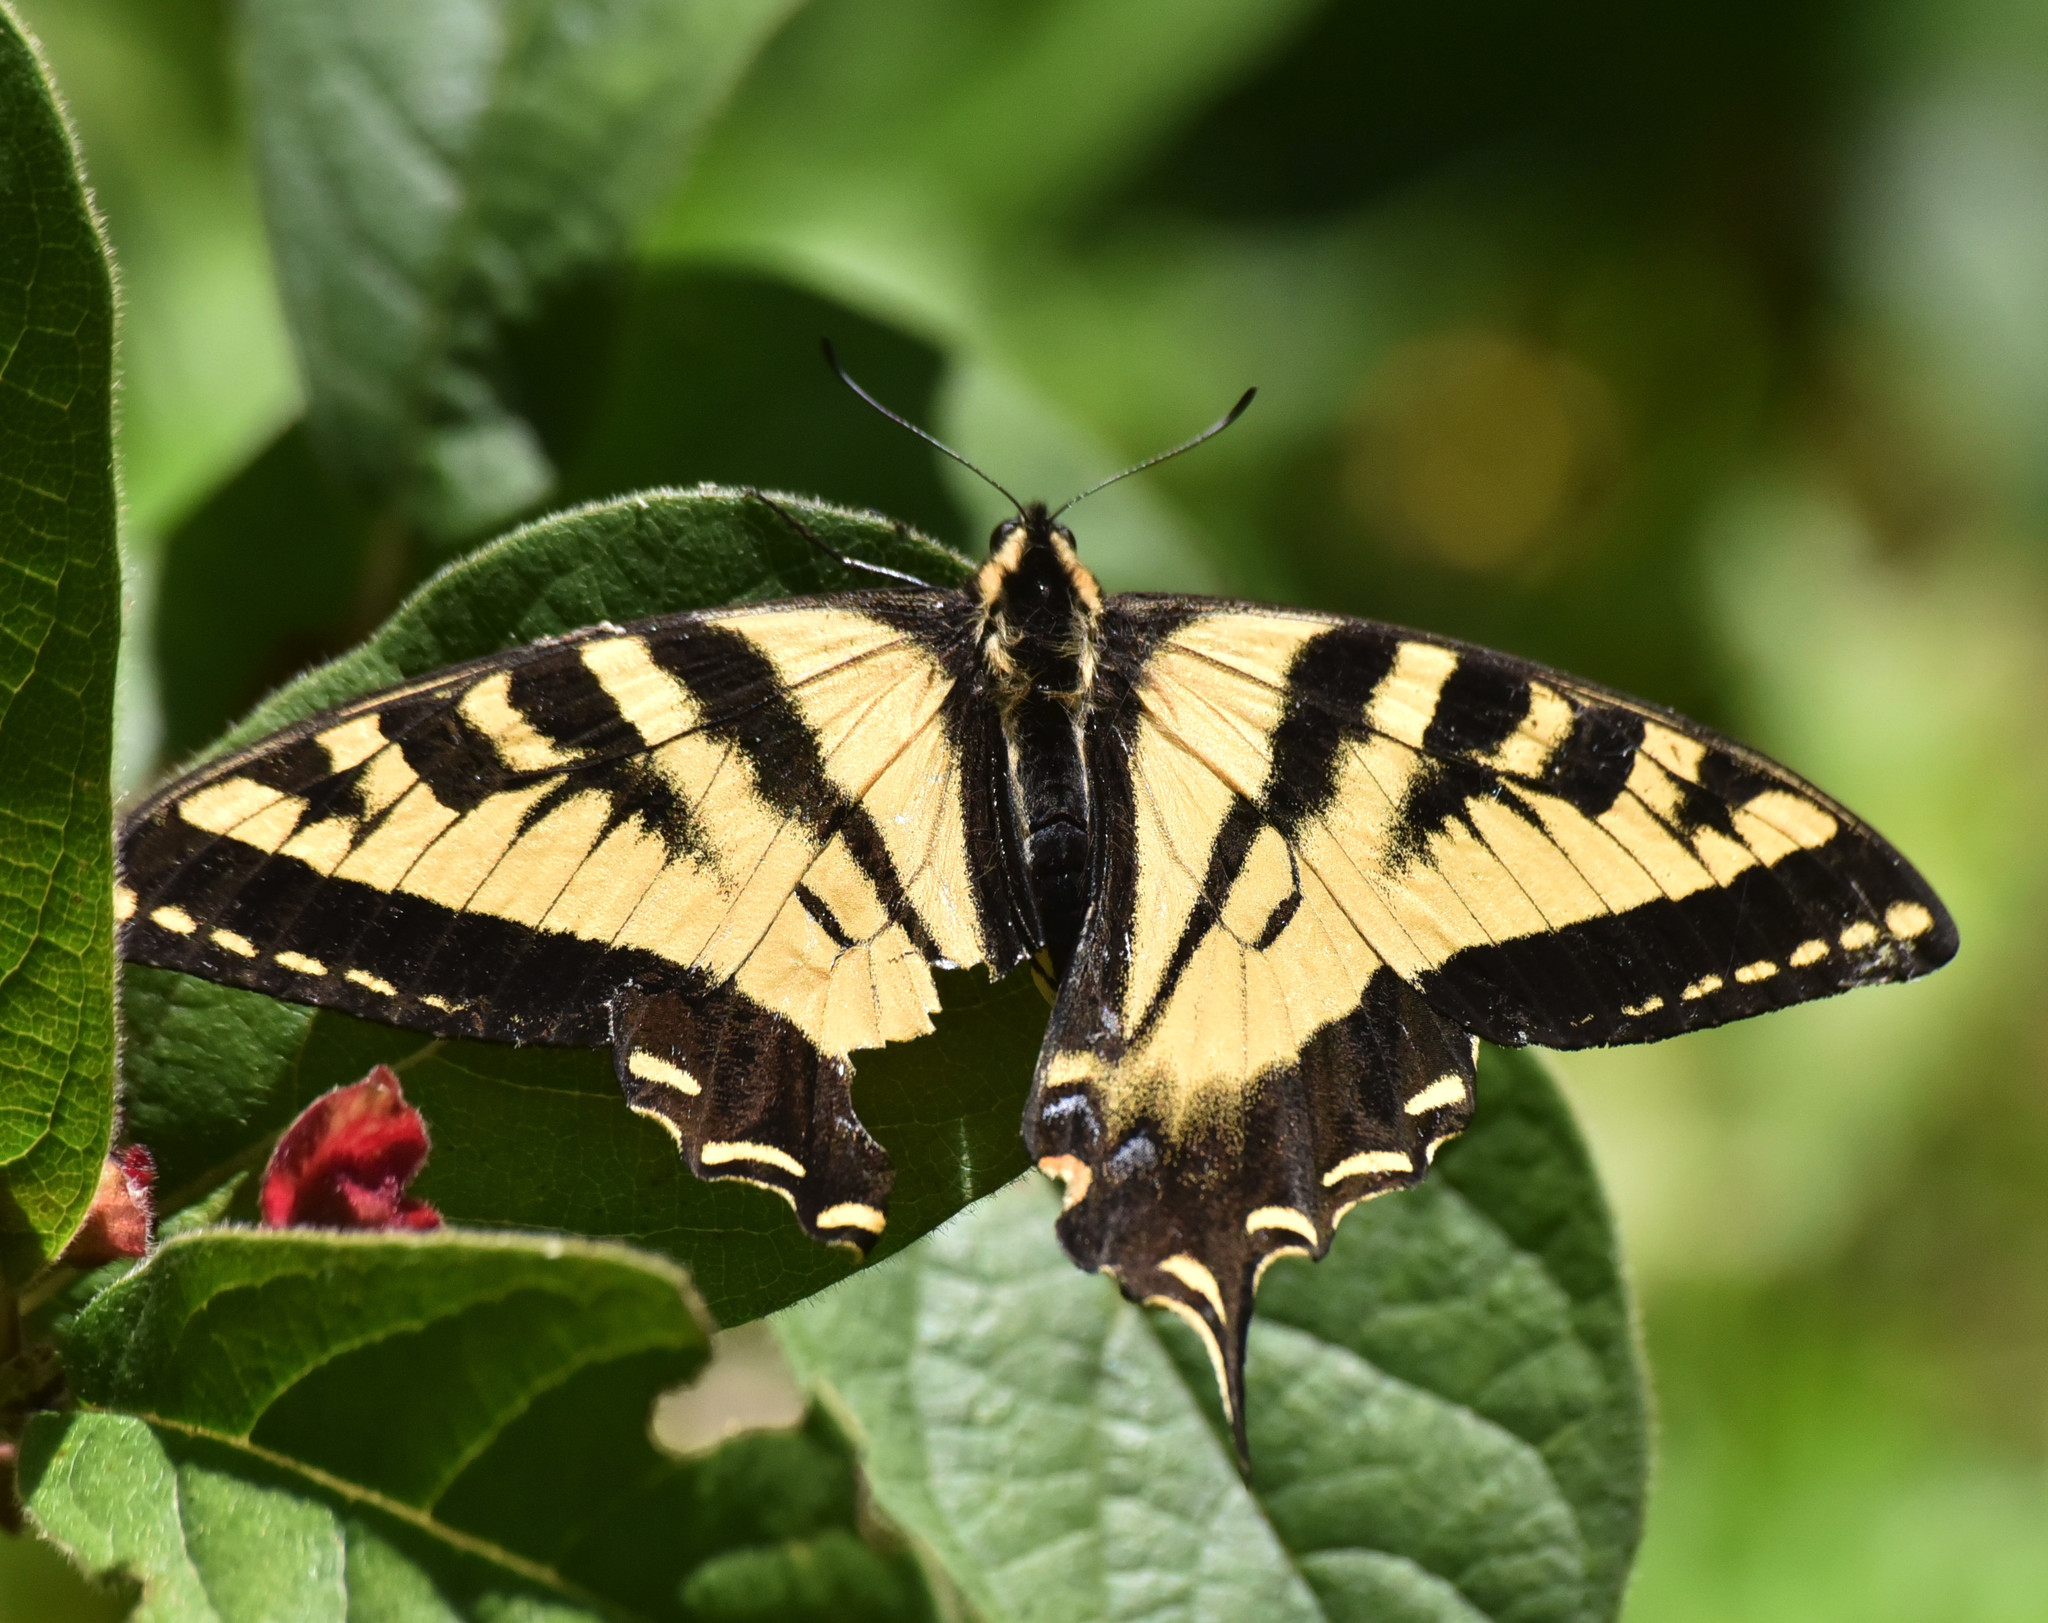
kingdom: Animalia
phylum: Arthropoda
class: Insecta
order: Lepidoptera
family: Papilionidae
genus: Papilio
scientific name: Papilio rutulus
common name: Western tiger swallowtail
